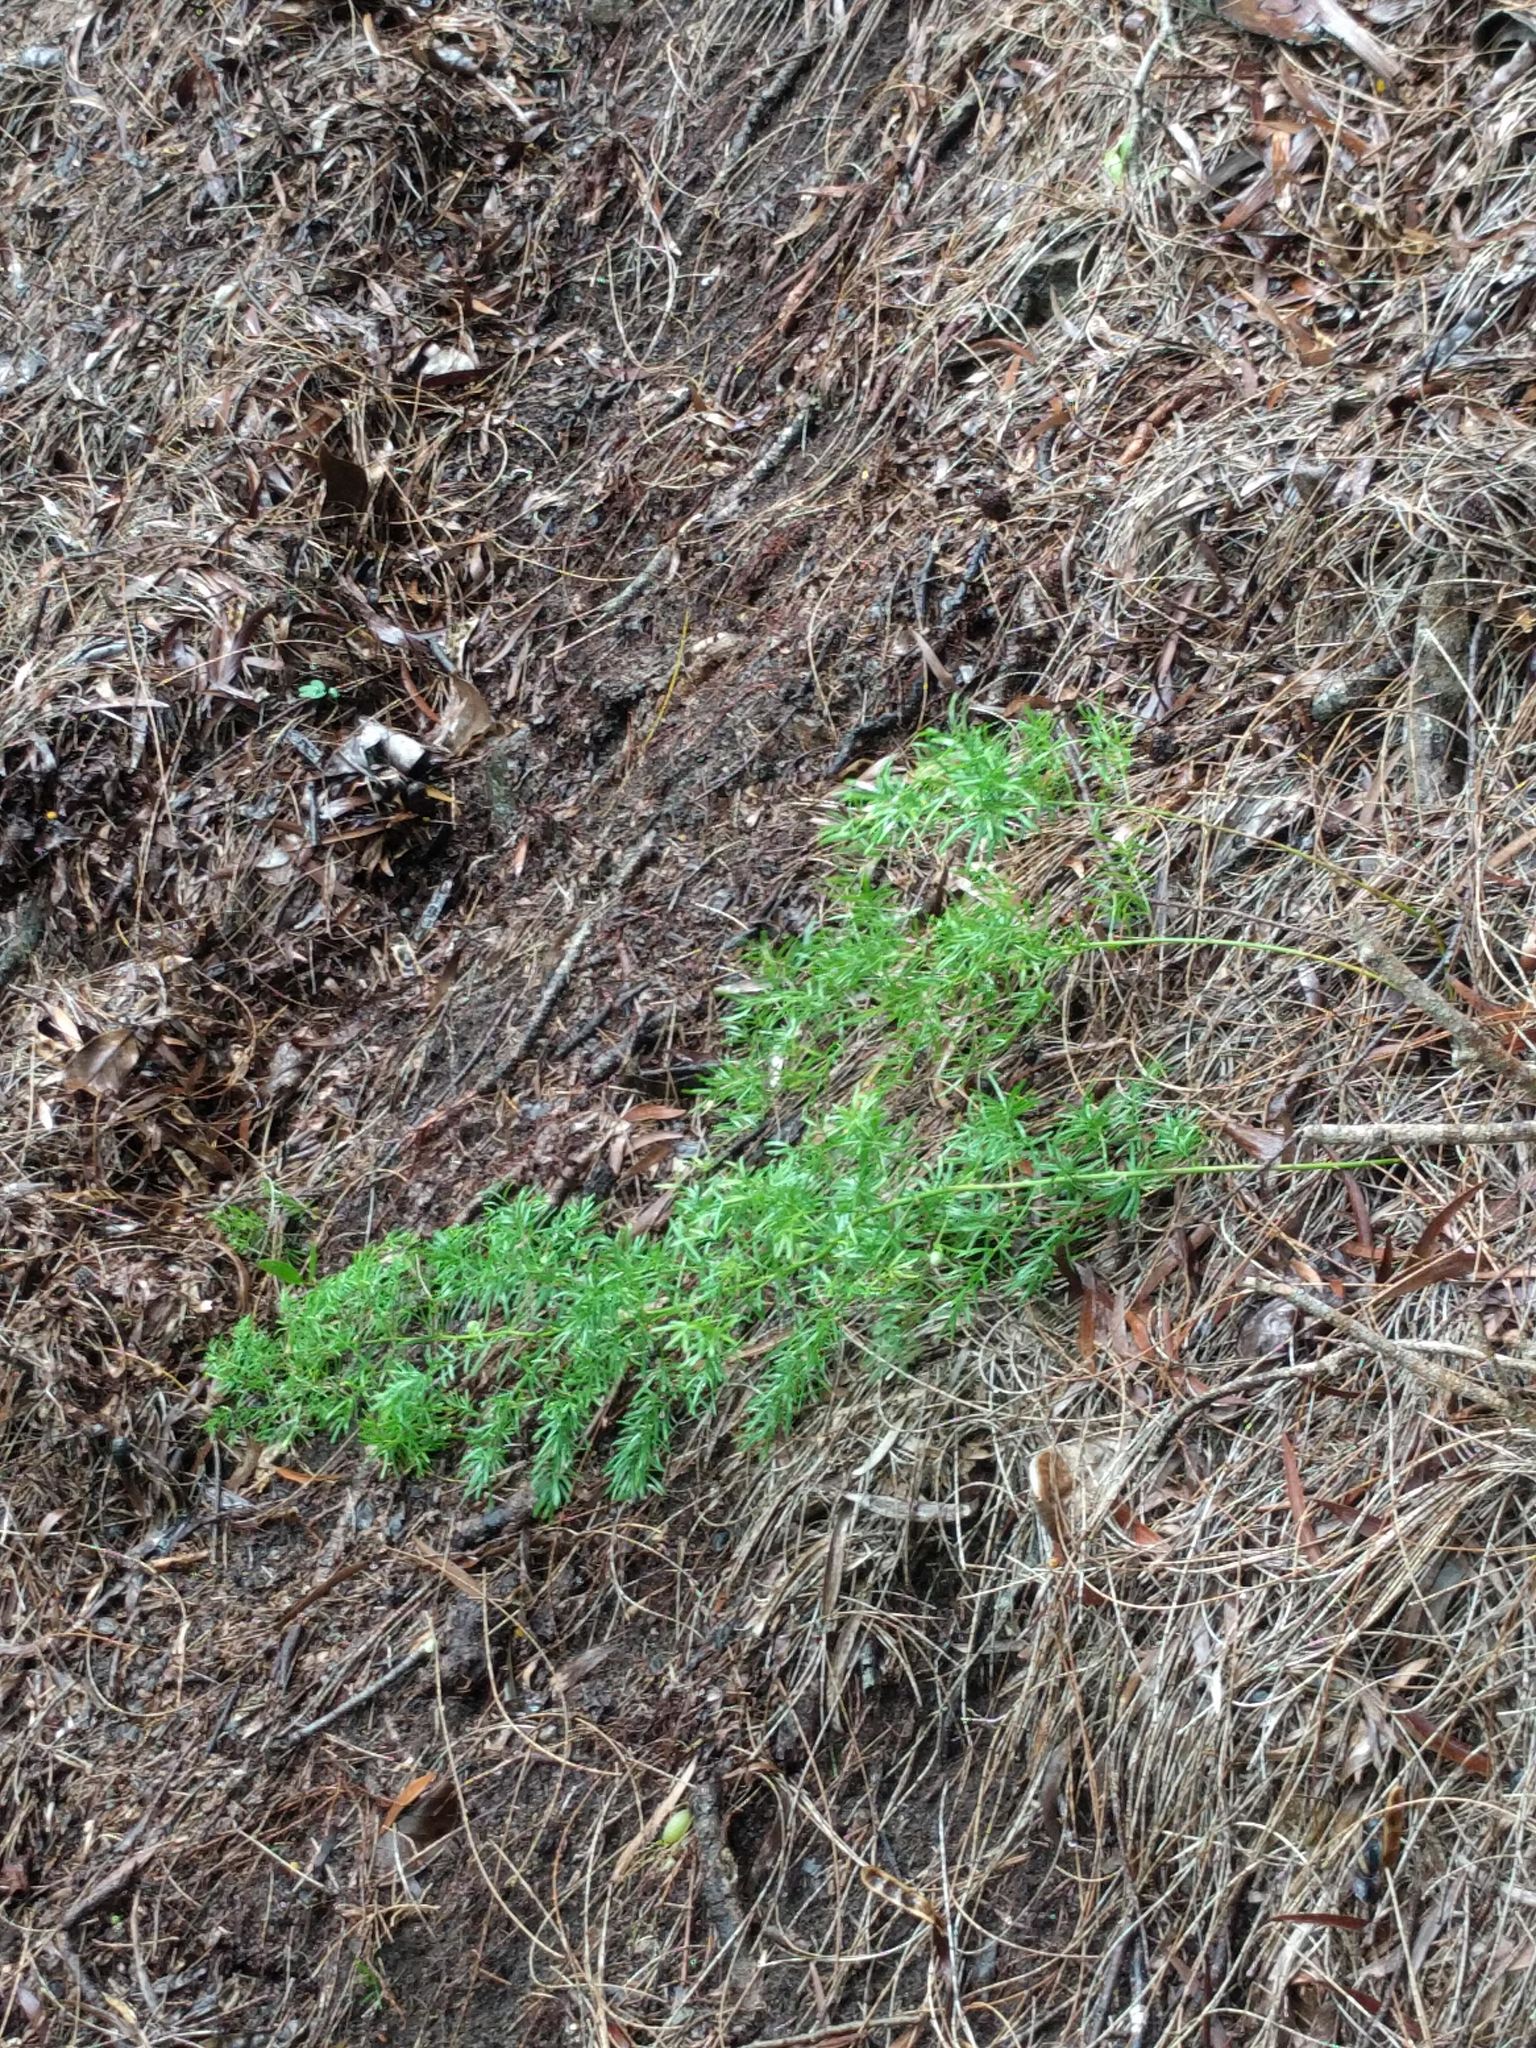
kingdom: Plantae
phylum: Tracheophyta
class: Liliopsida
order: Asparagales
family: Asparagaceae
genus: Asparagus
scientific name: Asparagus aethiopicus
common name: Sprenger's asparagus fern
